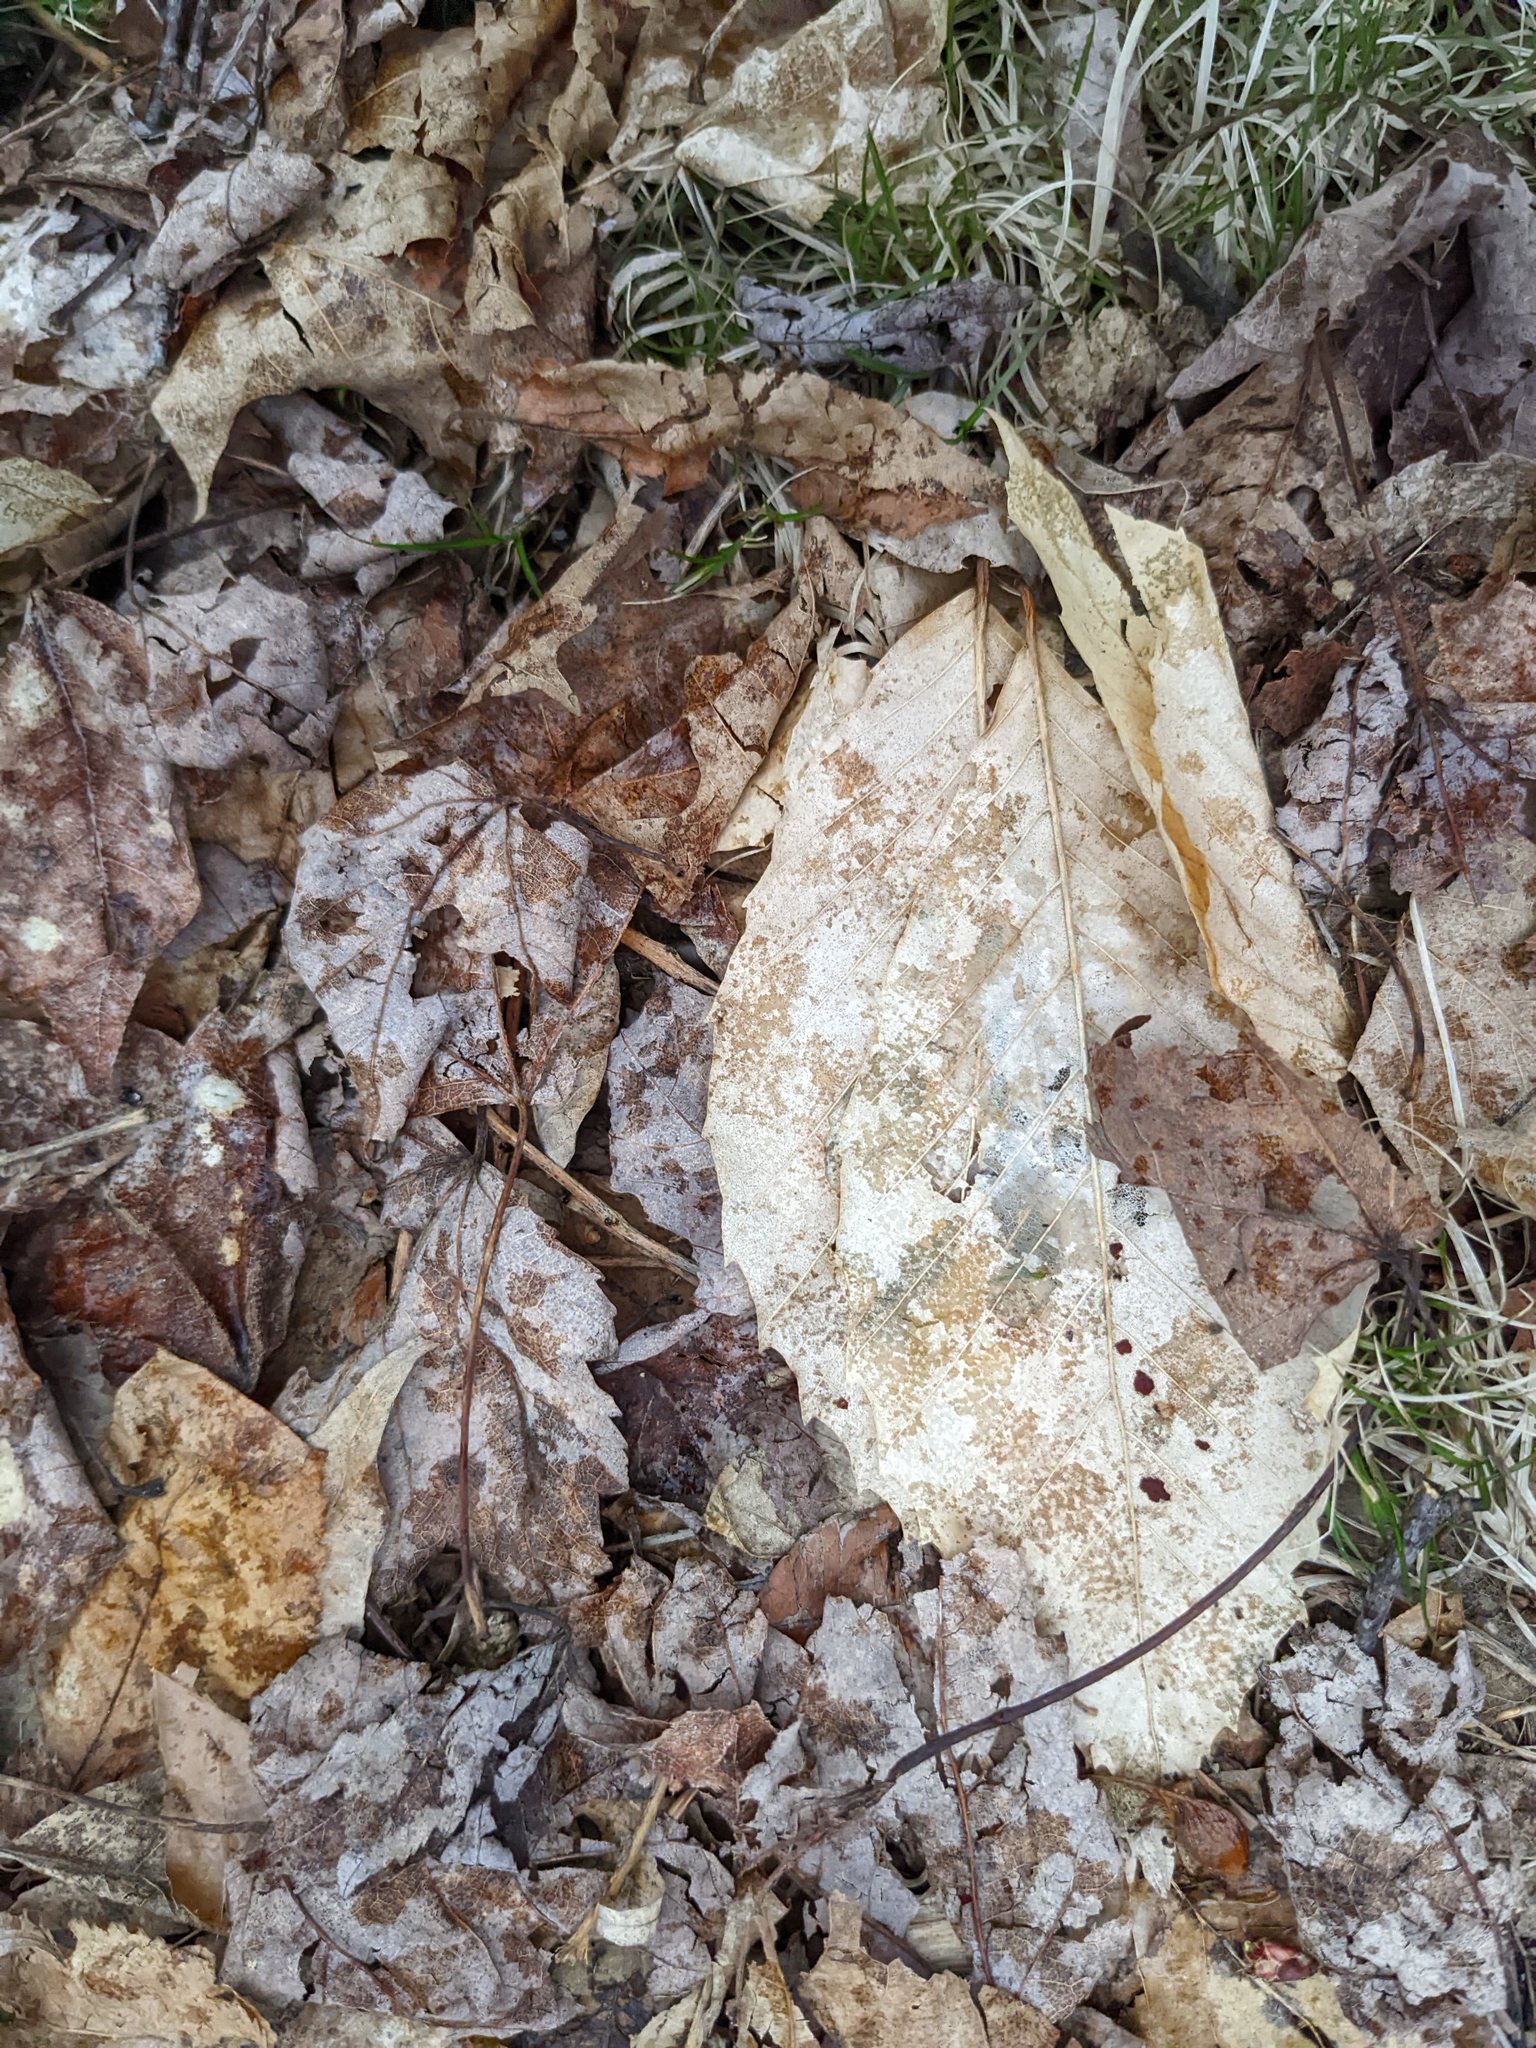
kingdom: Plantae
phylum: Tracheophyta
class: Magnoliopsida
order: Fagales
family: Fagaceae
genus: Fagus
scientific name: Fagus grandifolia
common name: American beech
